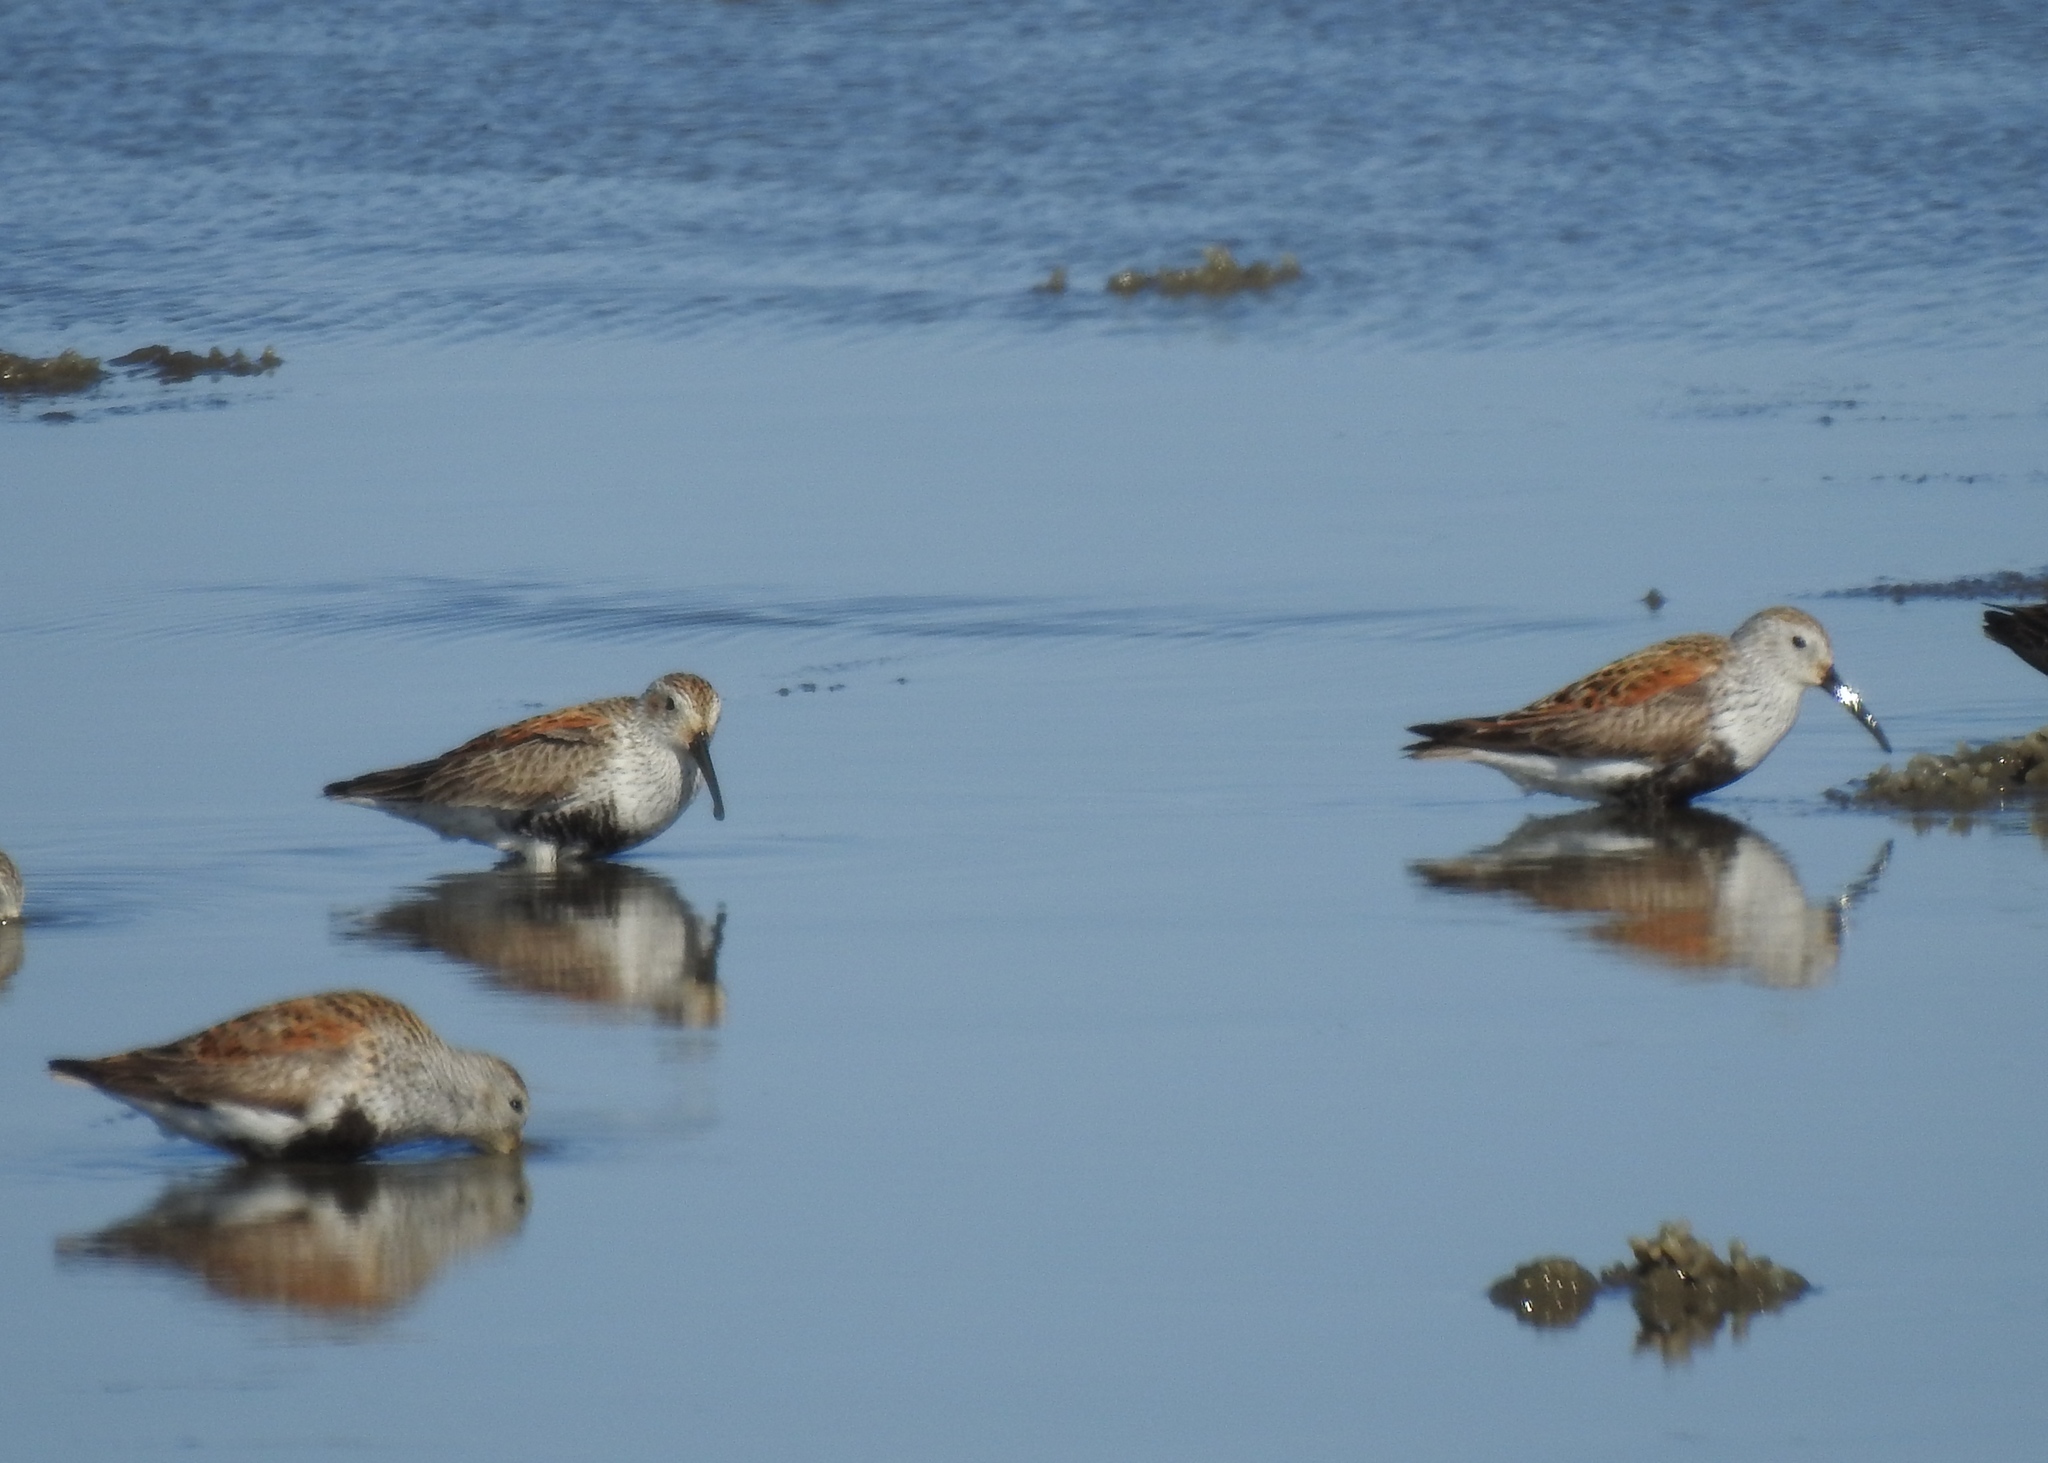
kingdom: Animalia
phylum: Chordata
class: Aves
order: Charadriiformes
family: Scolopacidae
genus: Calidris
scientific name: Calidris alpina
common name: Dunlin
